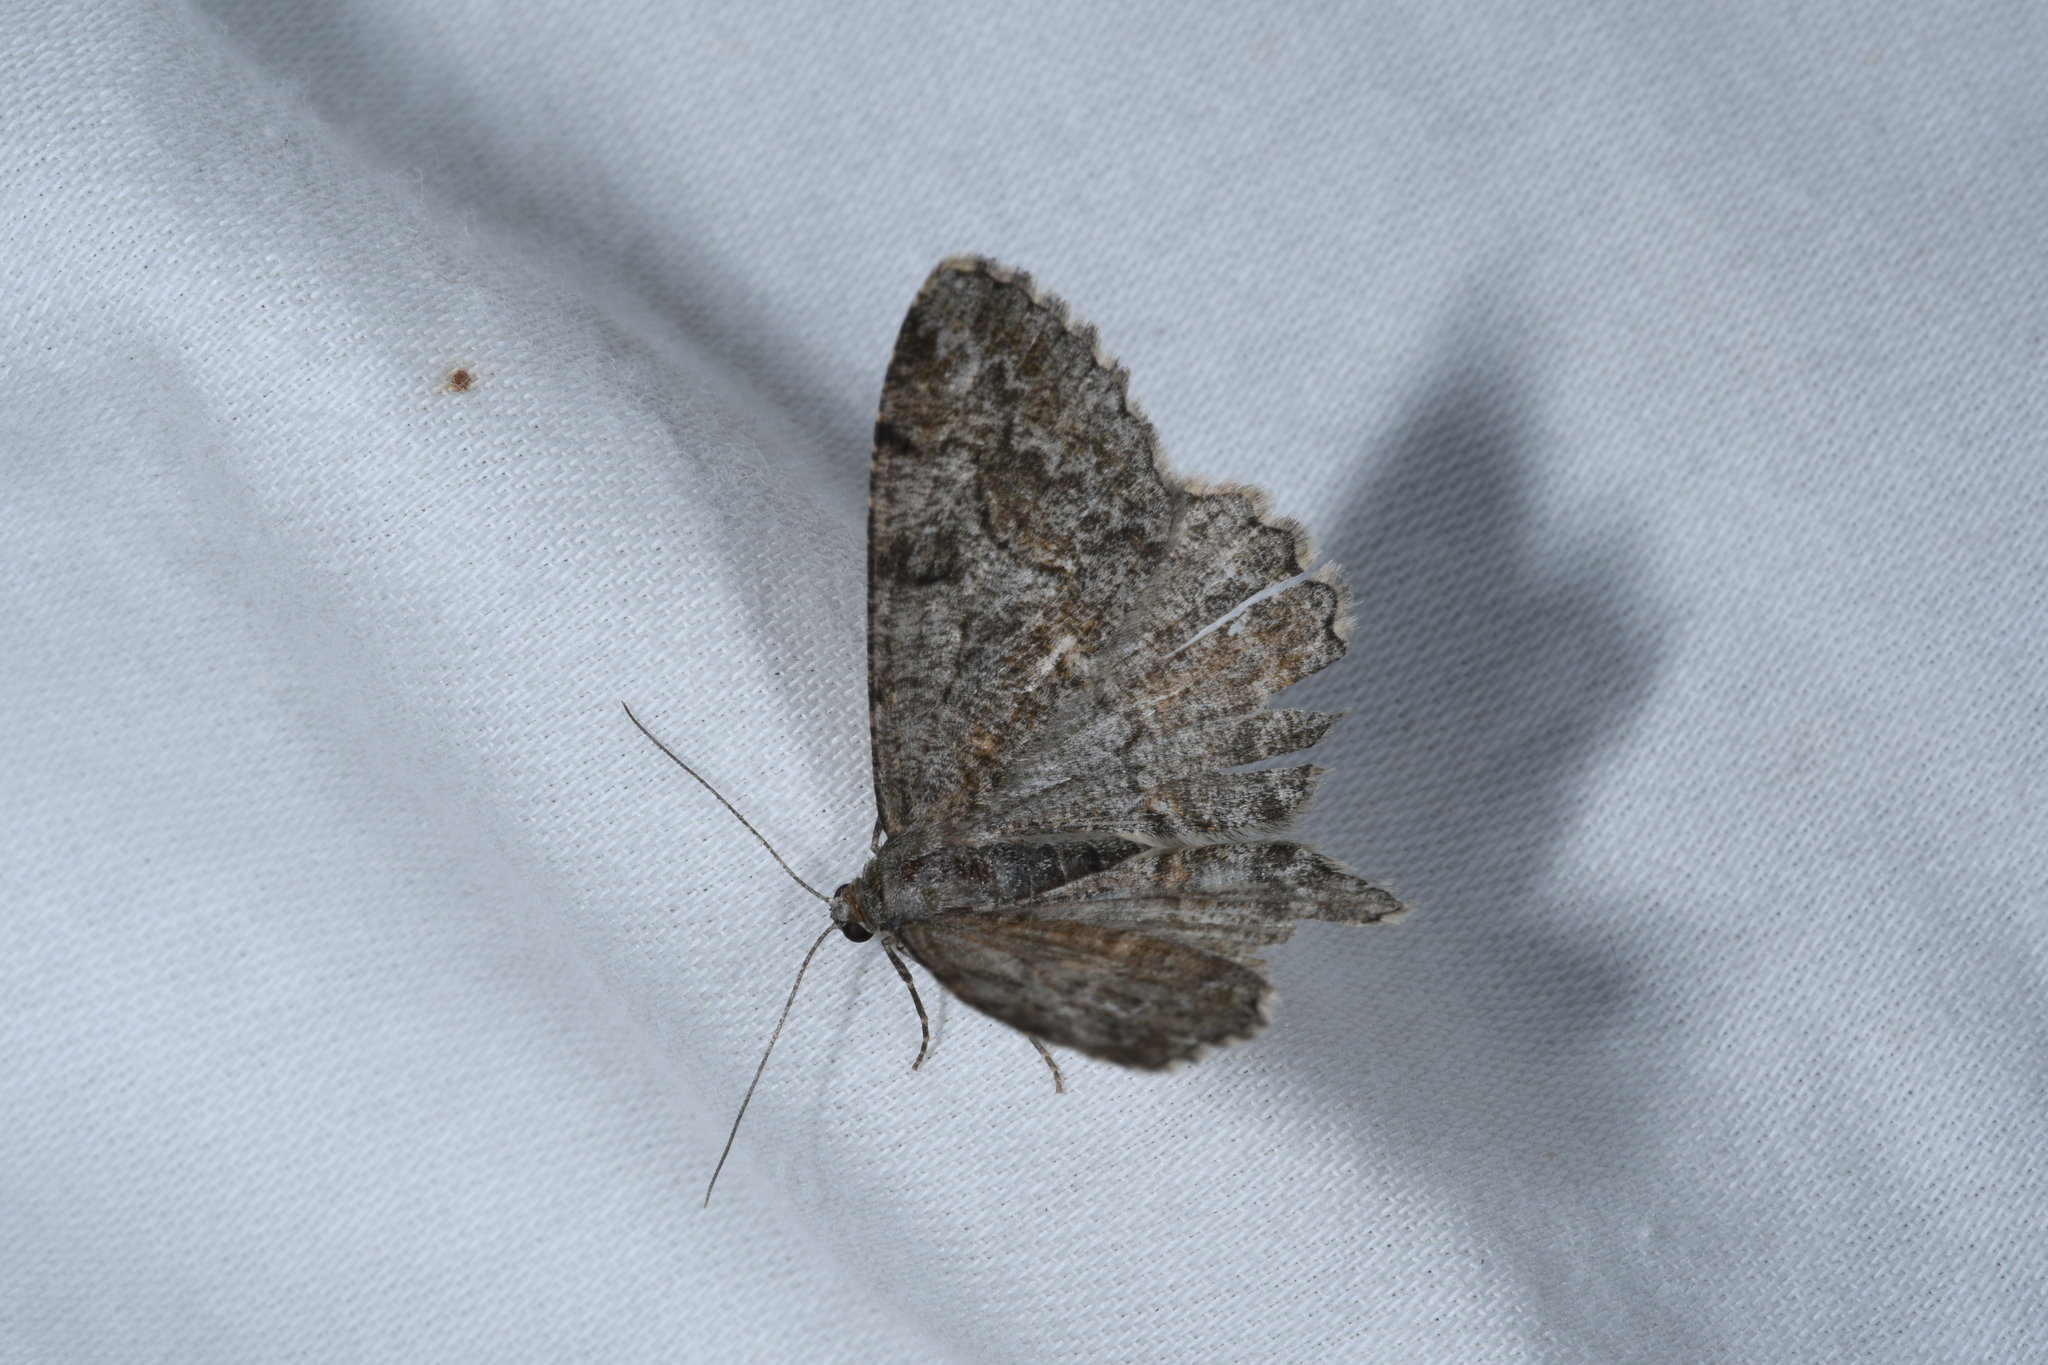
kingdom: Animalia
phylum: Arthropoda
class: Insecta
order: Lepidoptera
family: Geometridae
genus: Alcis
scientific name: Alcis repandata
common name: Mottled beauty
